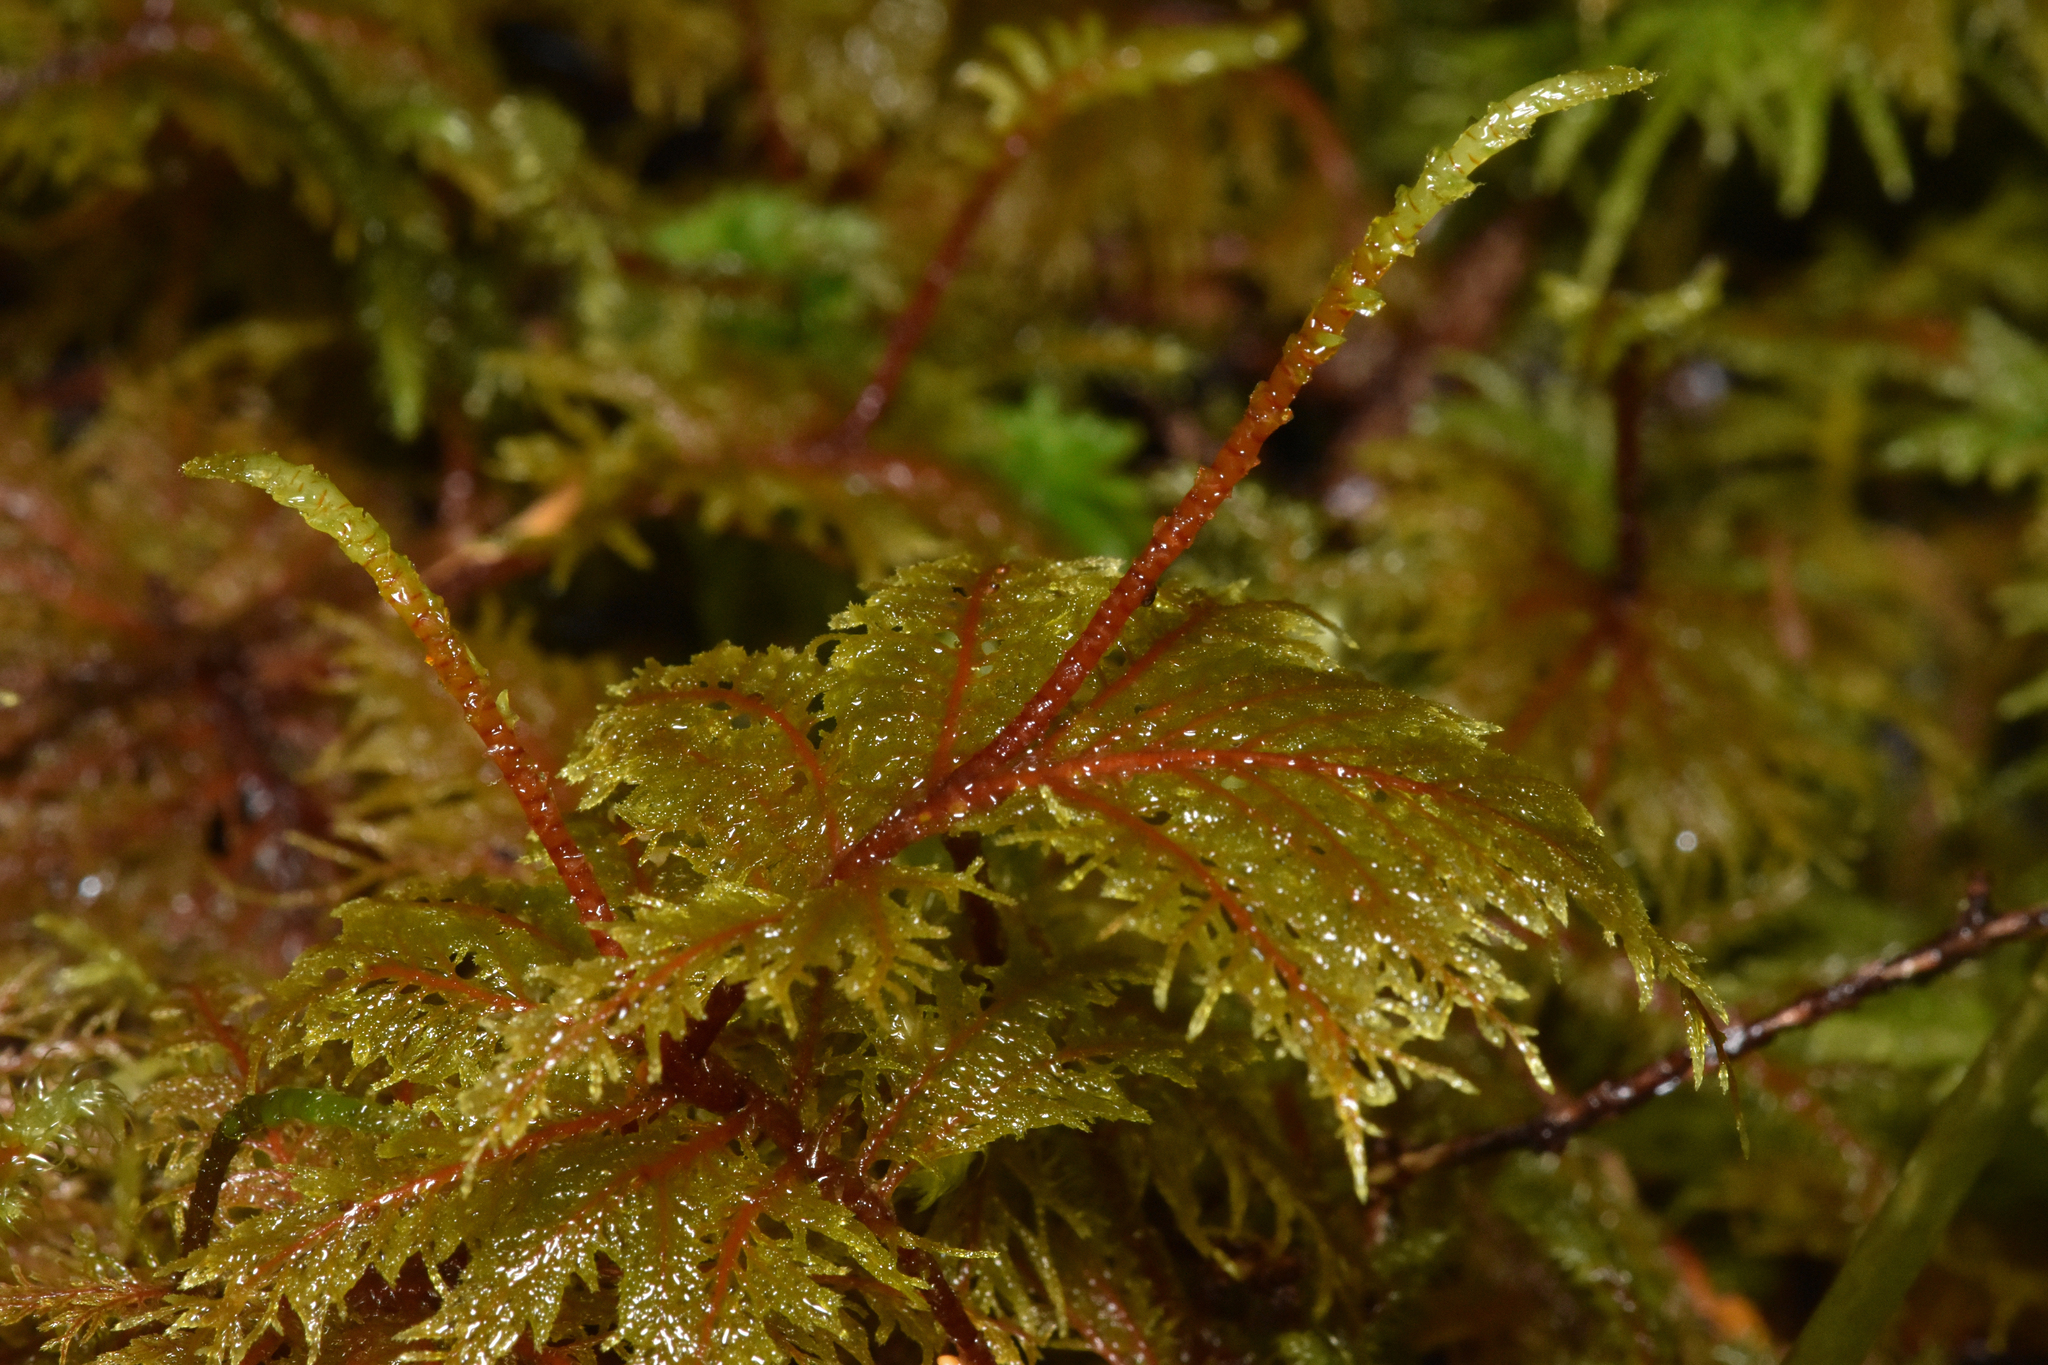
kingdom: Plantae
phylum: Bryophyta
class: Bryopsida
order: Hypnales
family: Hylocomiaceae
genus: Hylocomium
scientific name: Hylocomium splendens
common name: Stairstep moss
